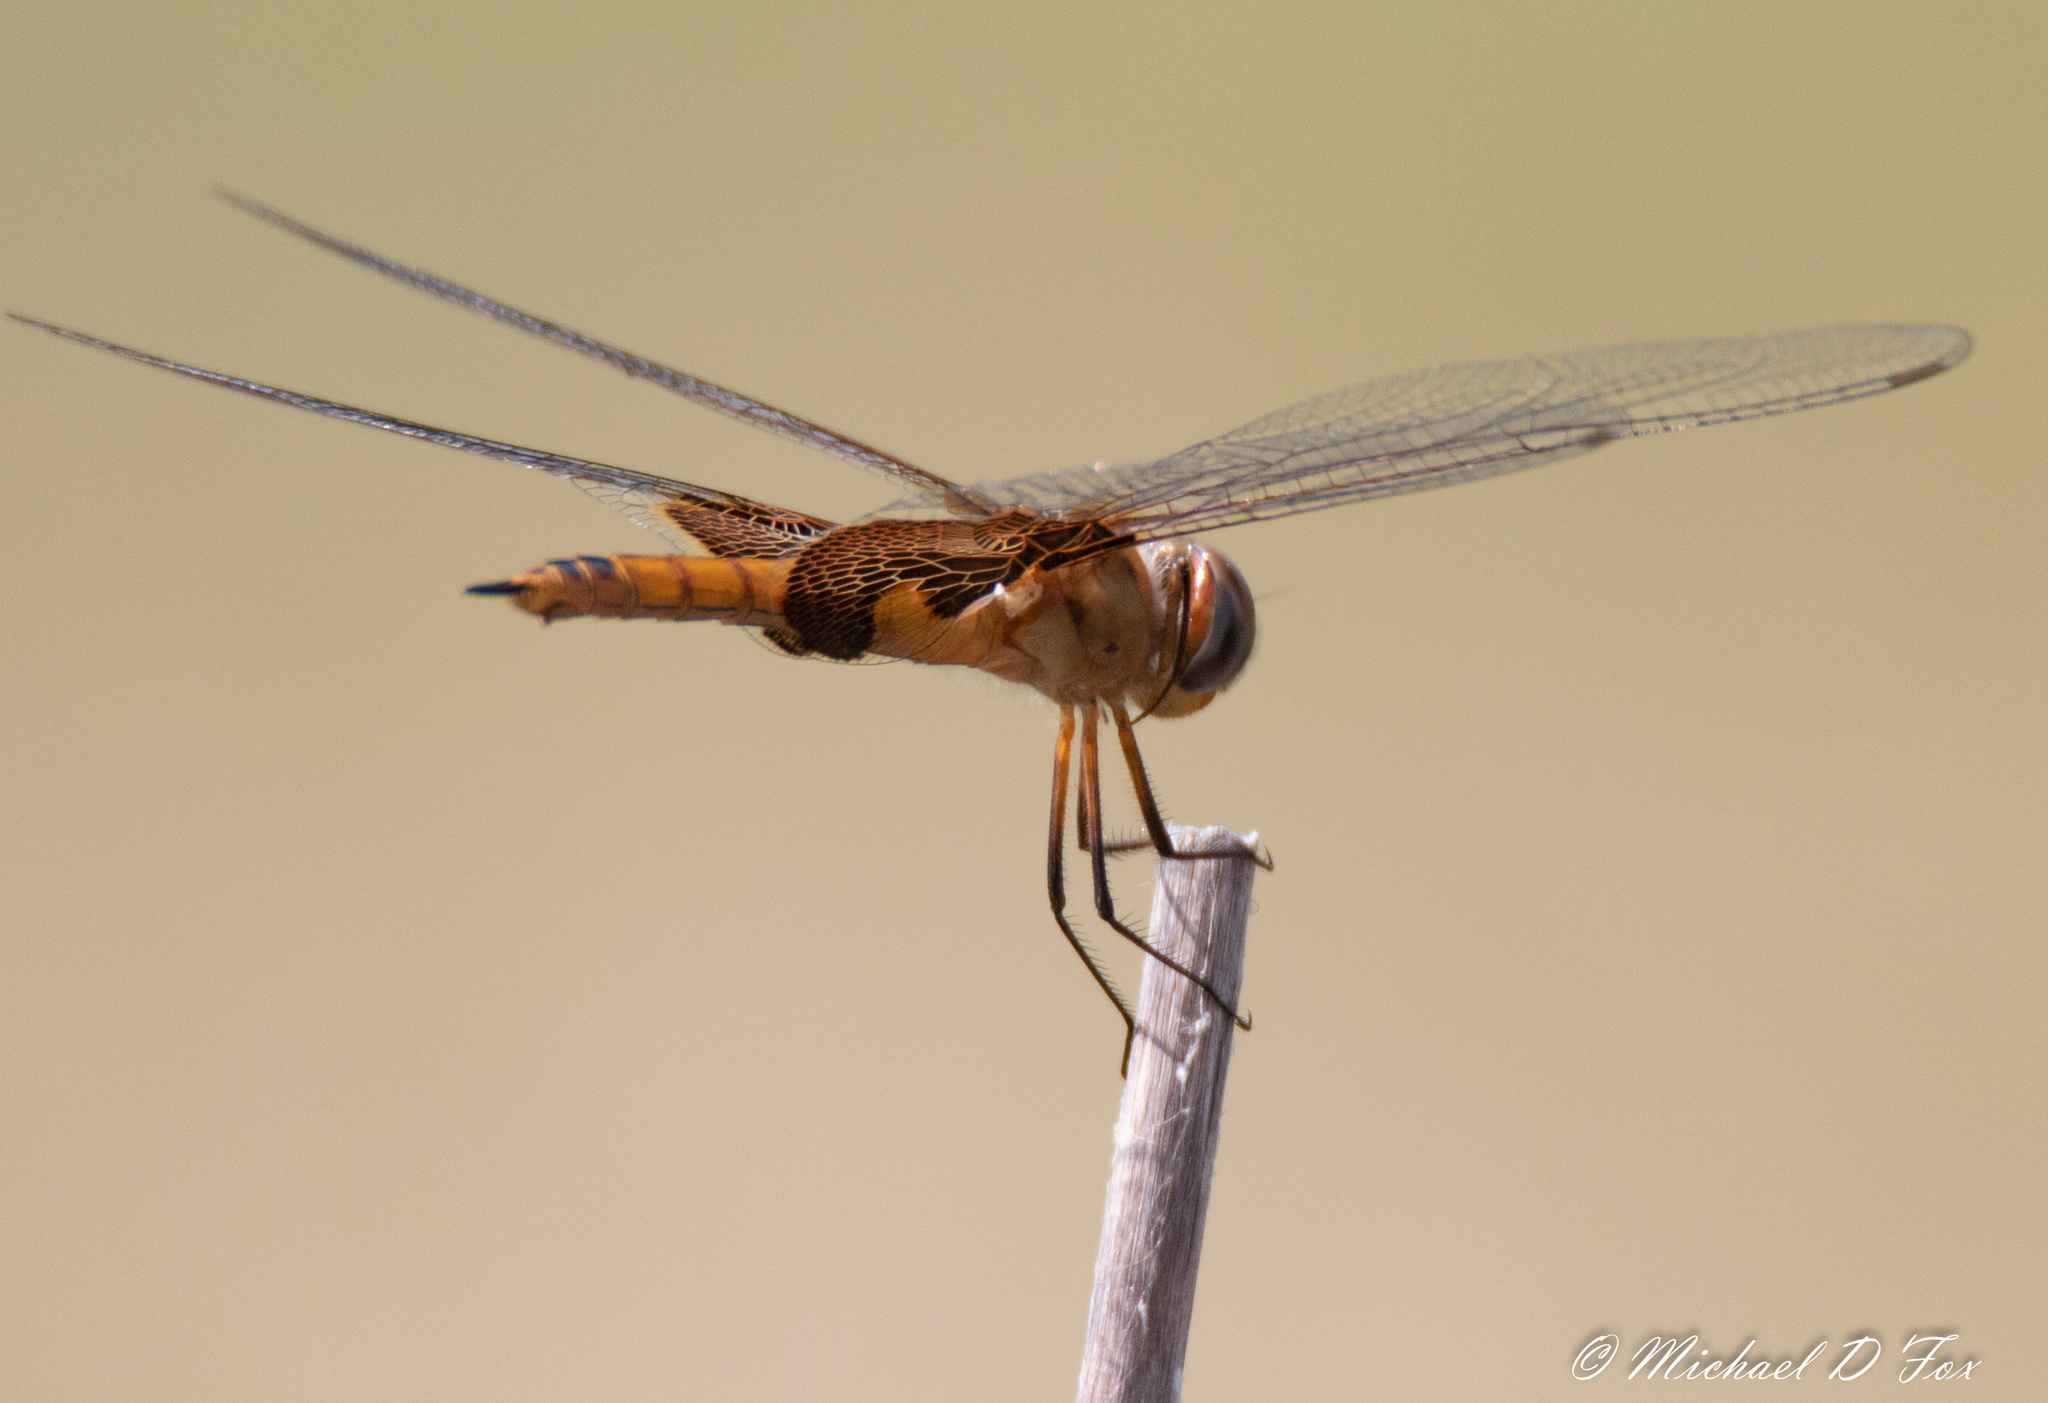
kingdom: Animalia
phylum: Arthropoda
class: Insecta
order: Odonata
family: Libellulidae
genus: Tramea
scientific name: Tramea onusta
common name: Red saddlebags
